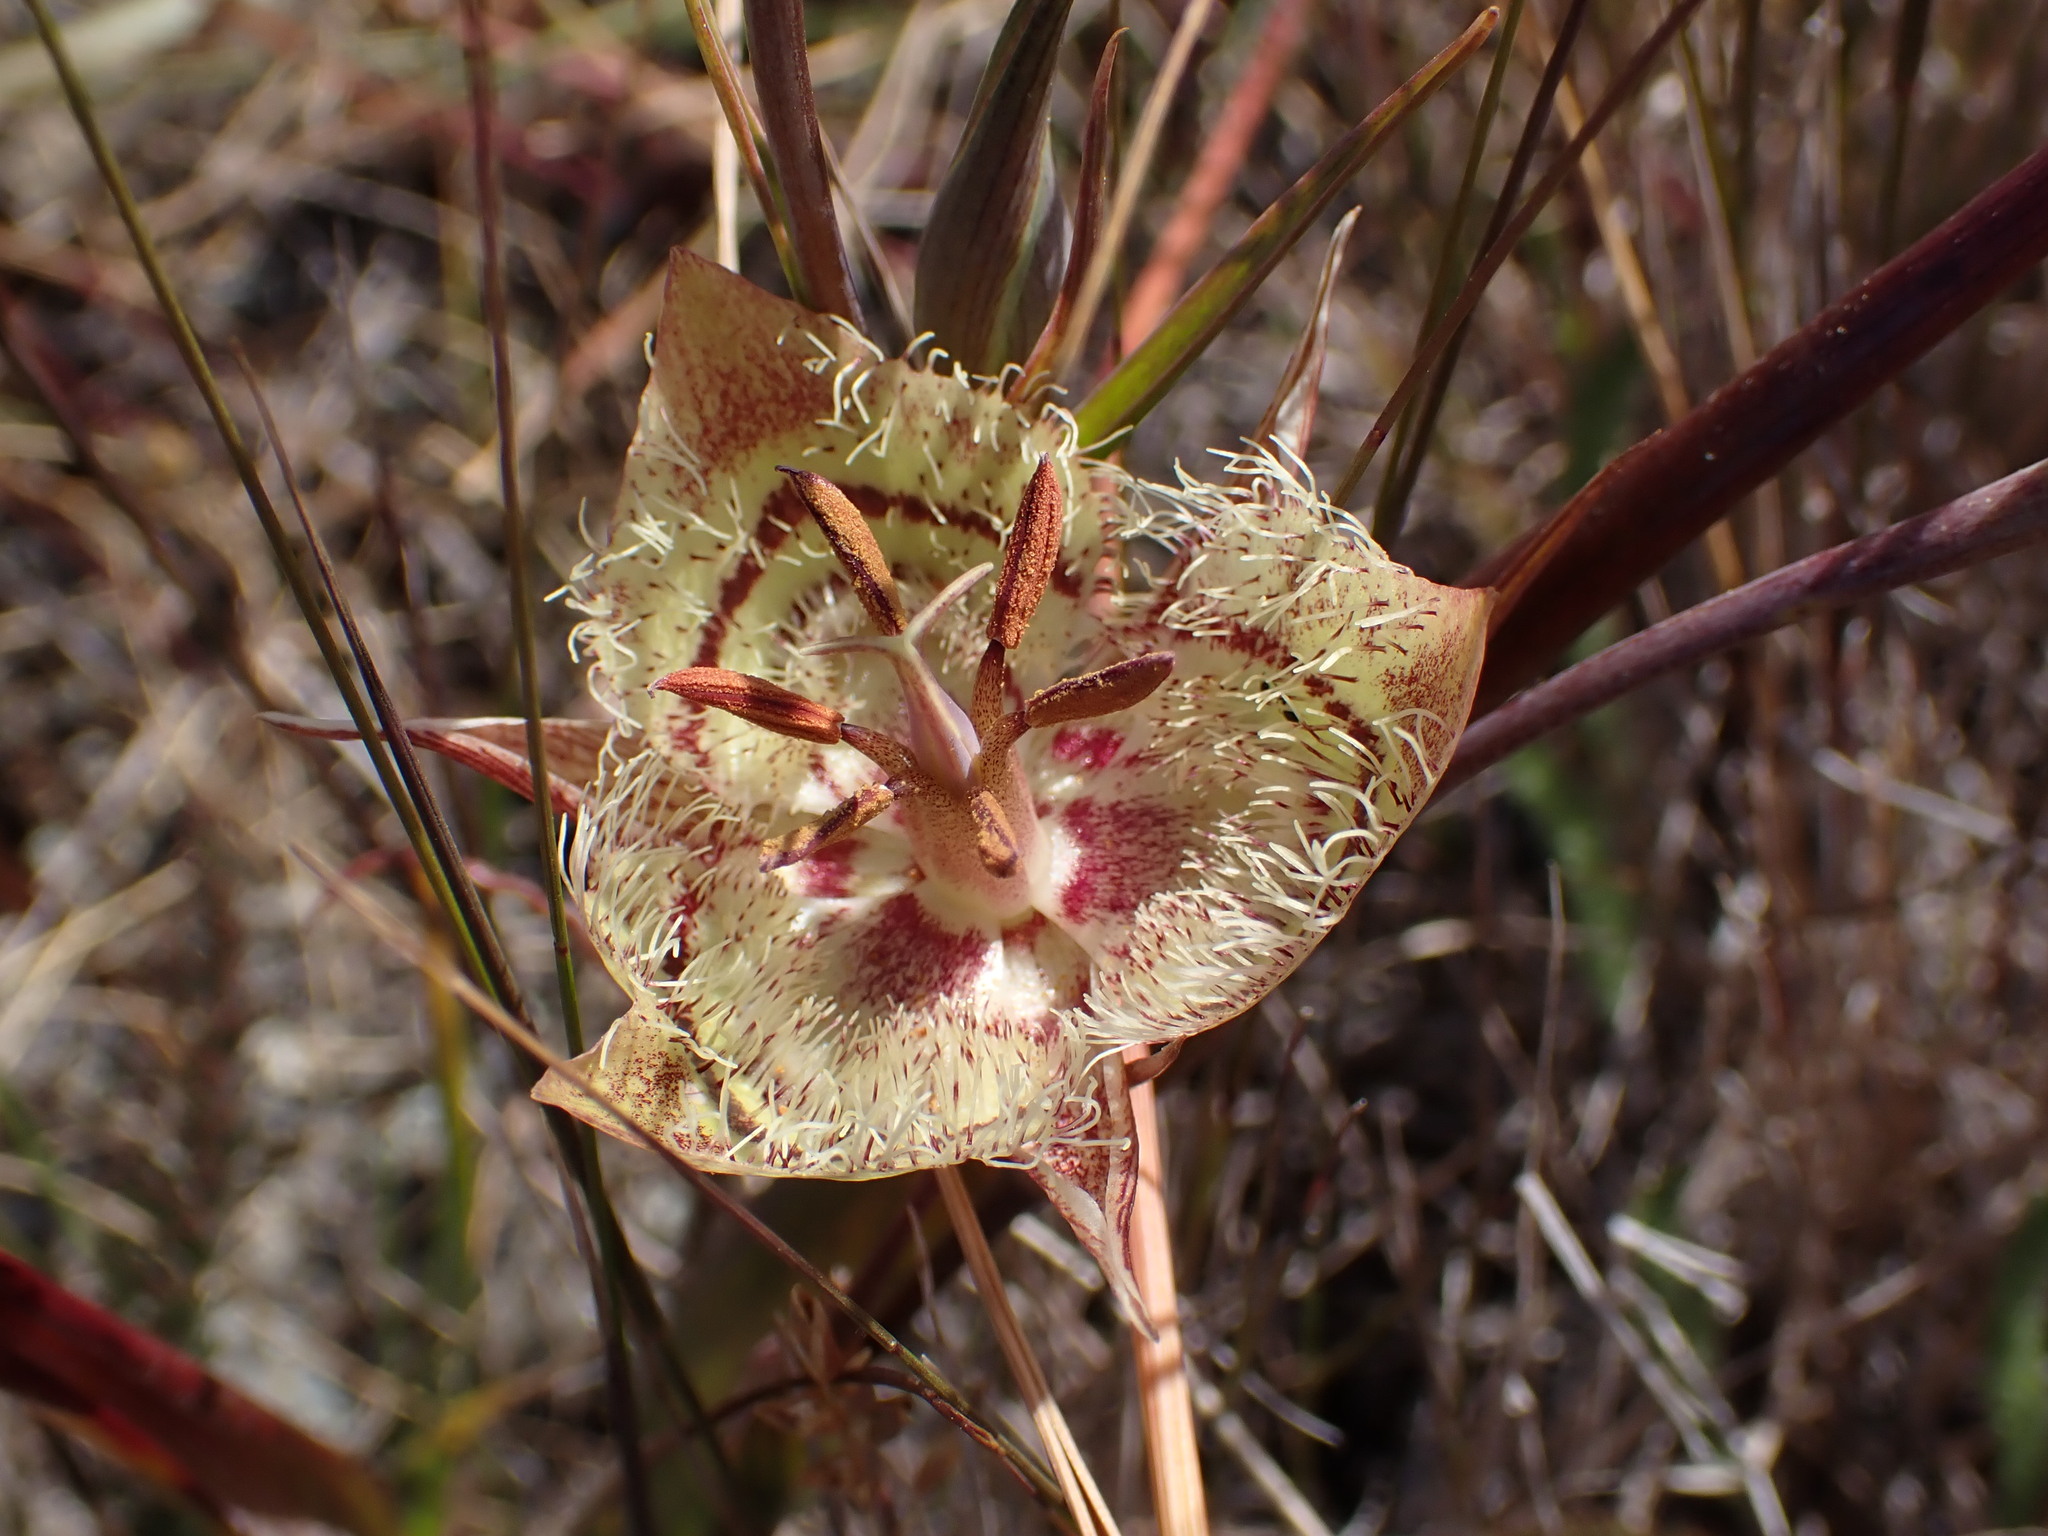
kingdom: Plantae
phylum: Tracheophyta
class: Liliopsida
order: Liliales
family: Liliaceae
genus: Calochortus
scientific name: Calochortus tiburonensis
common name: Tiburon mariposa-lily
